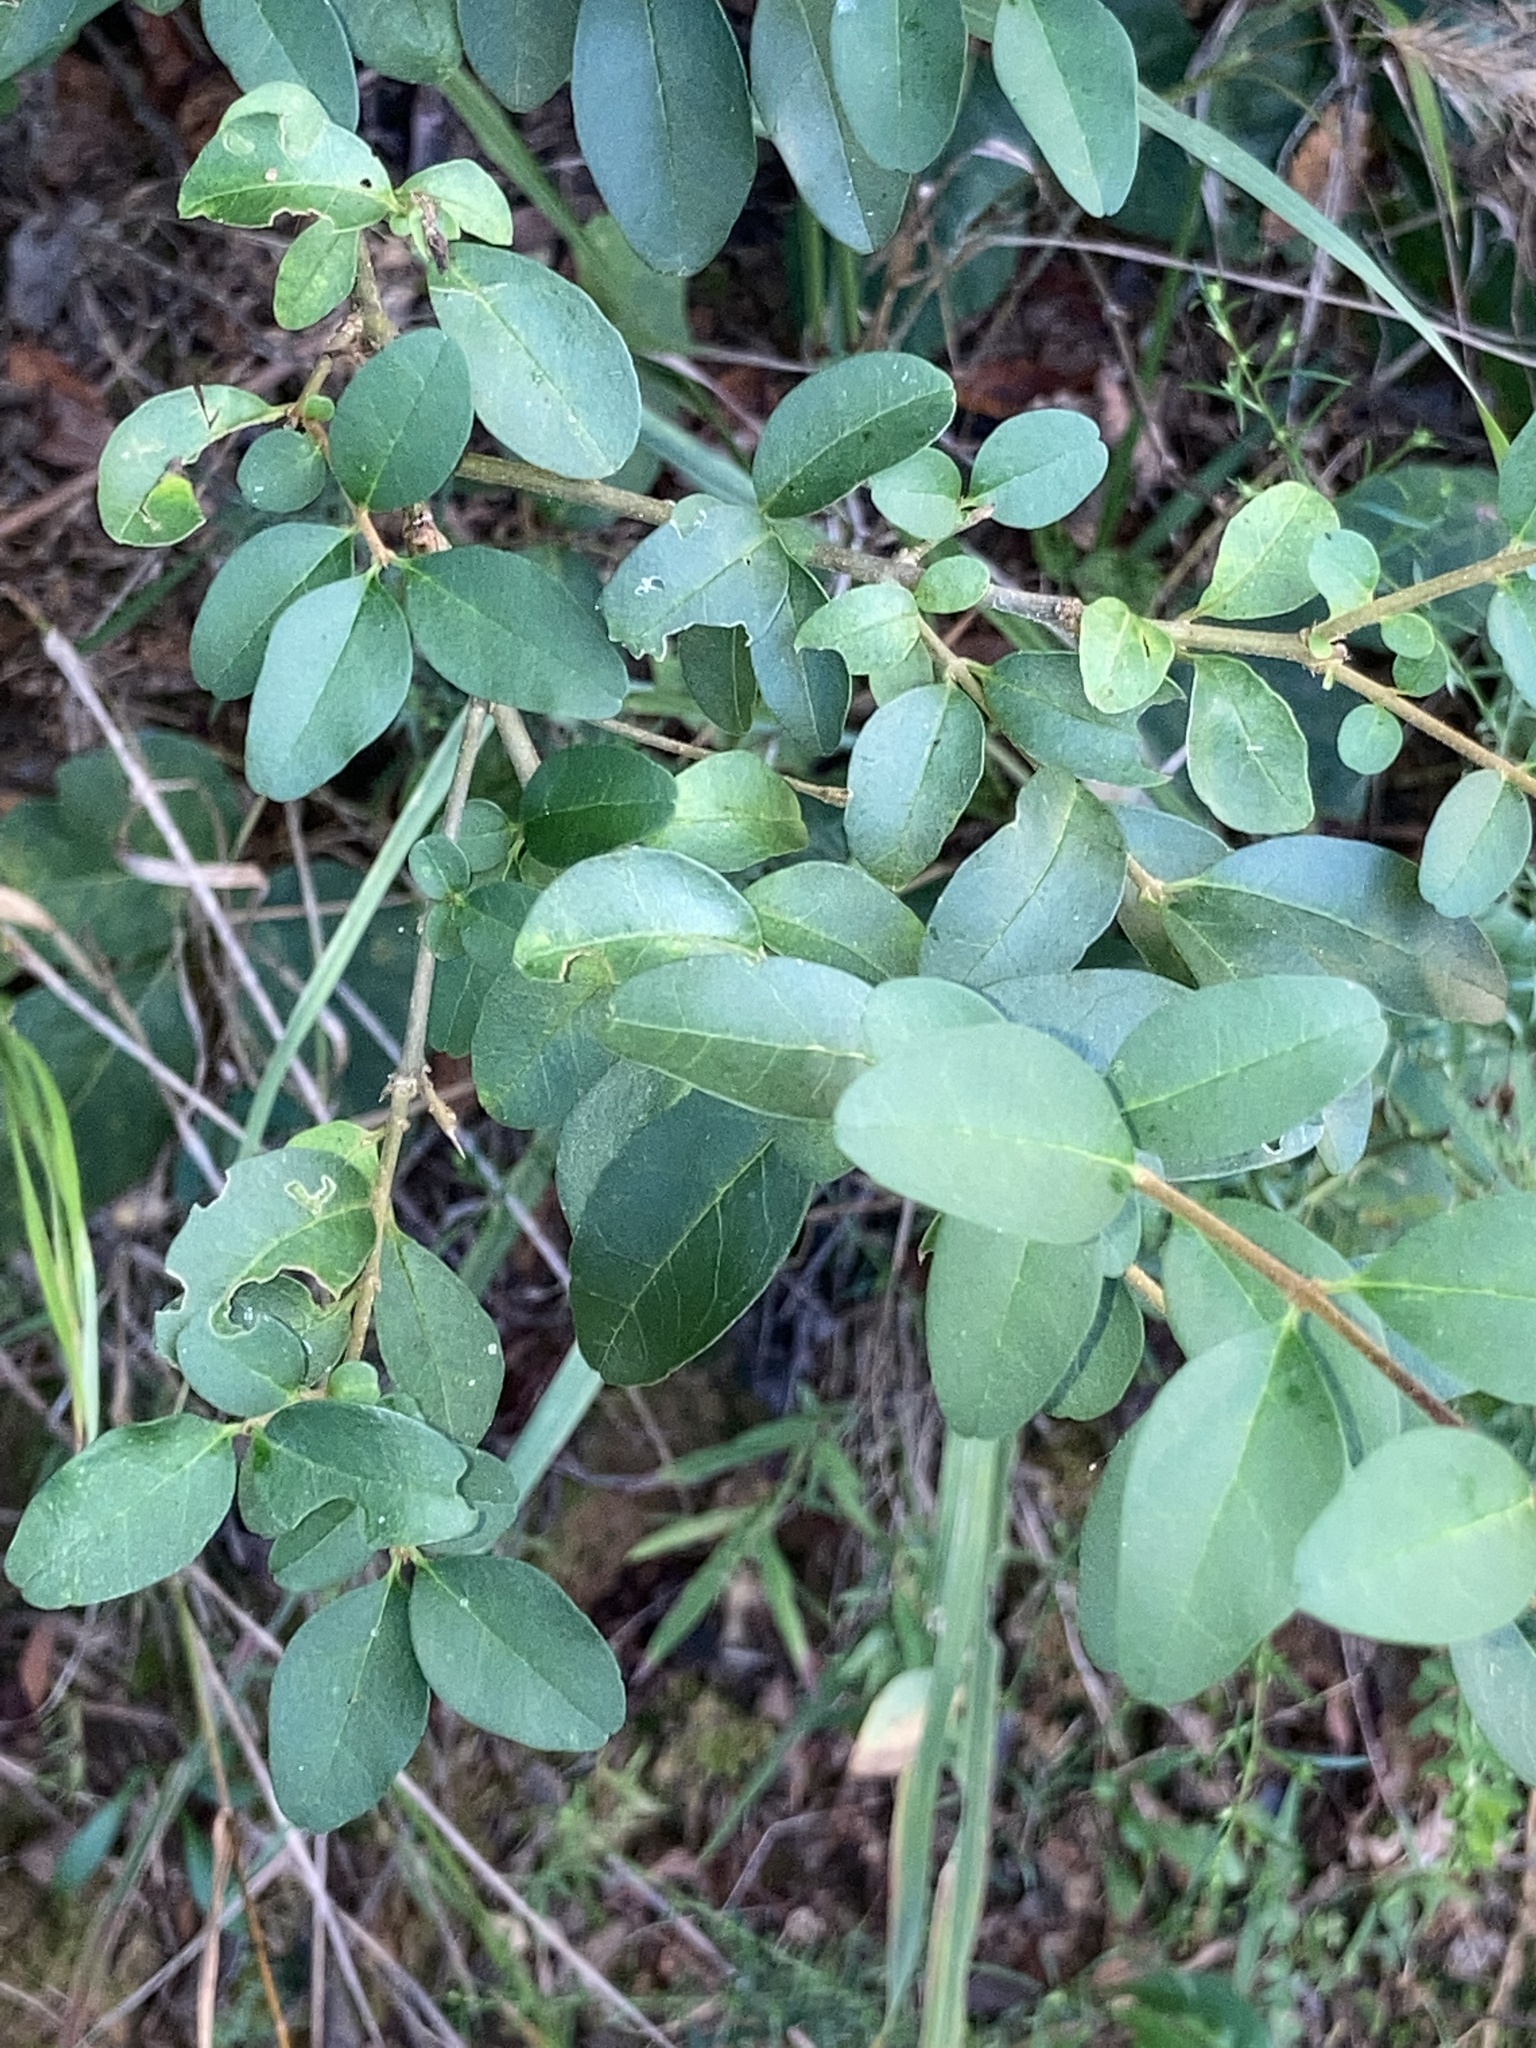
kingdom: Plantae
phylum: Tracheophyta
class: Magnoliopsida
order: Lamiales
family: Oleaceae
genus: Ligustrum
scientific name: Ligustrum sinense
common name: Chinese privet
